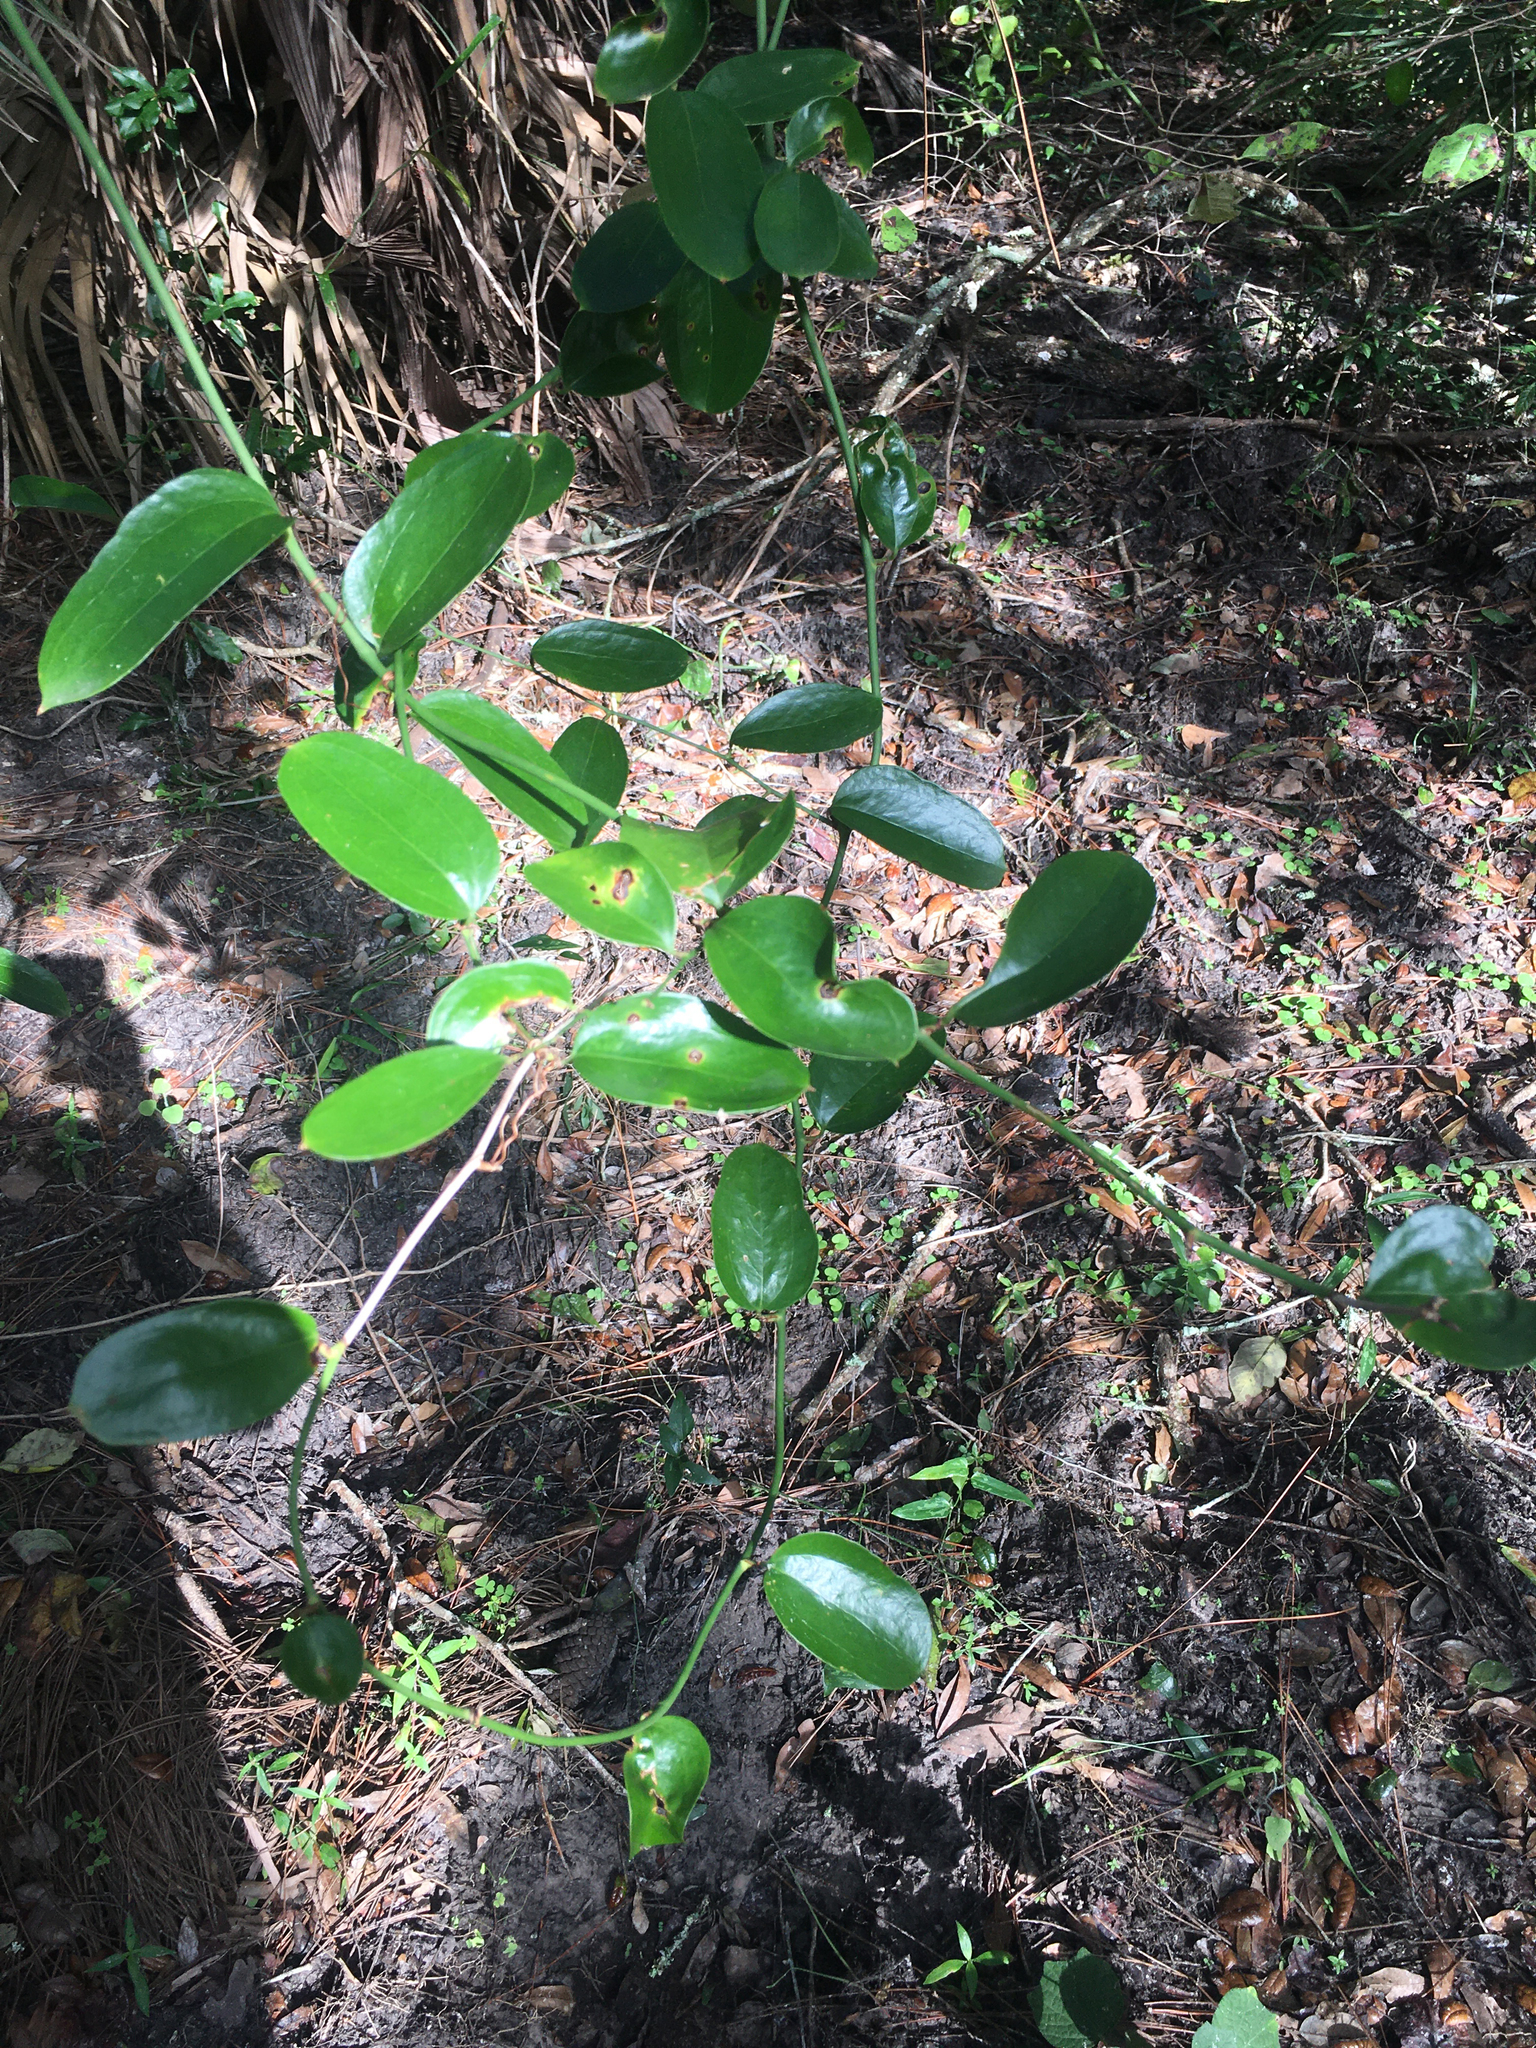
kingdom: Plantae
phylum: Tracheophyta
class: Liliopsida
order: Liliales
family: Smilacaceae
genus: Smilax
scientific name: Smilax laurifolia
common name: Bamboovine
